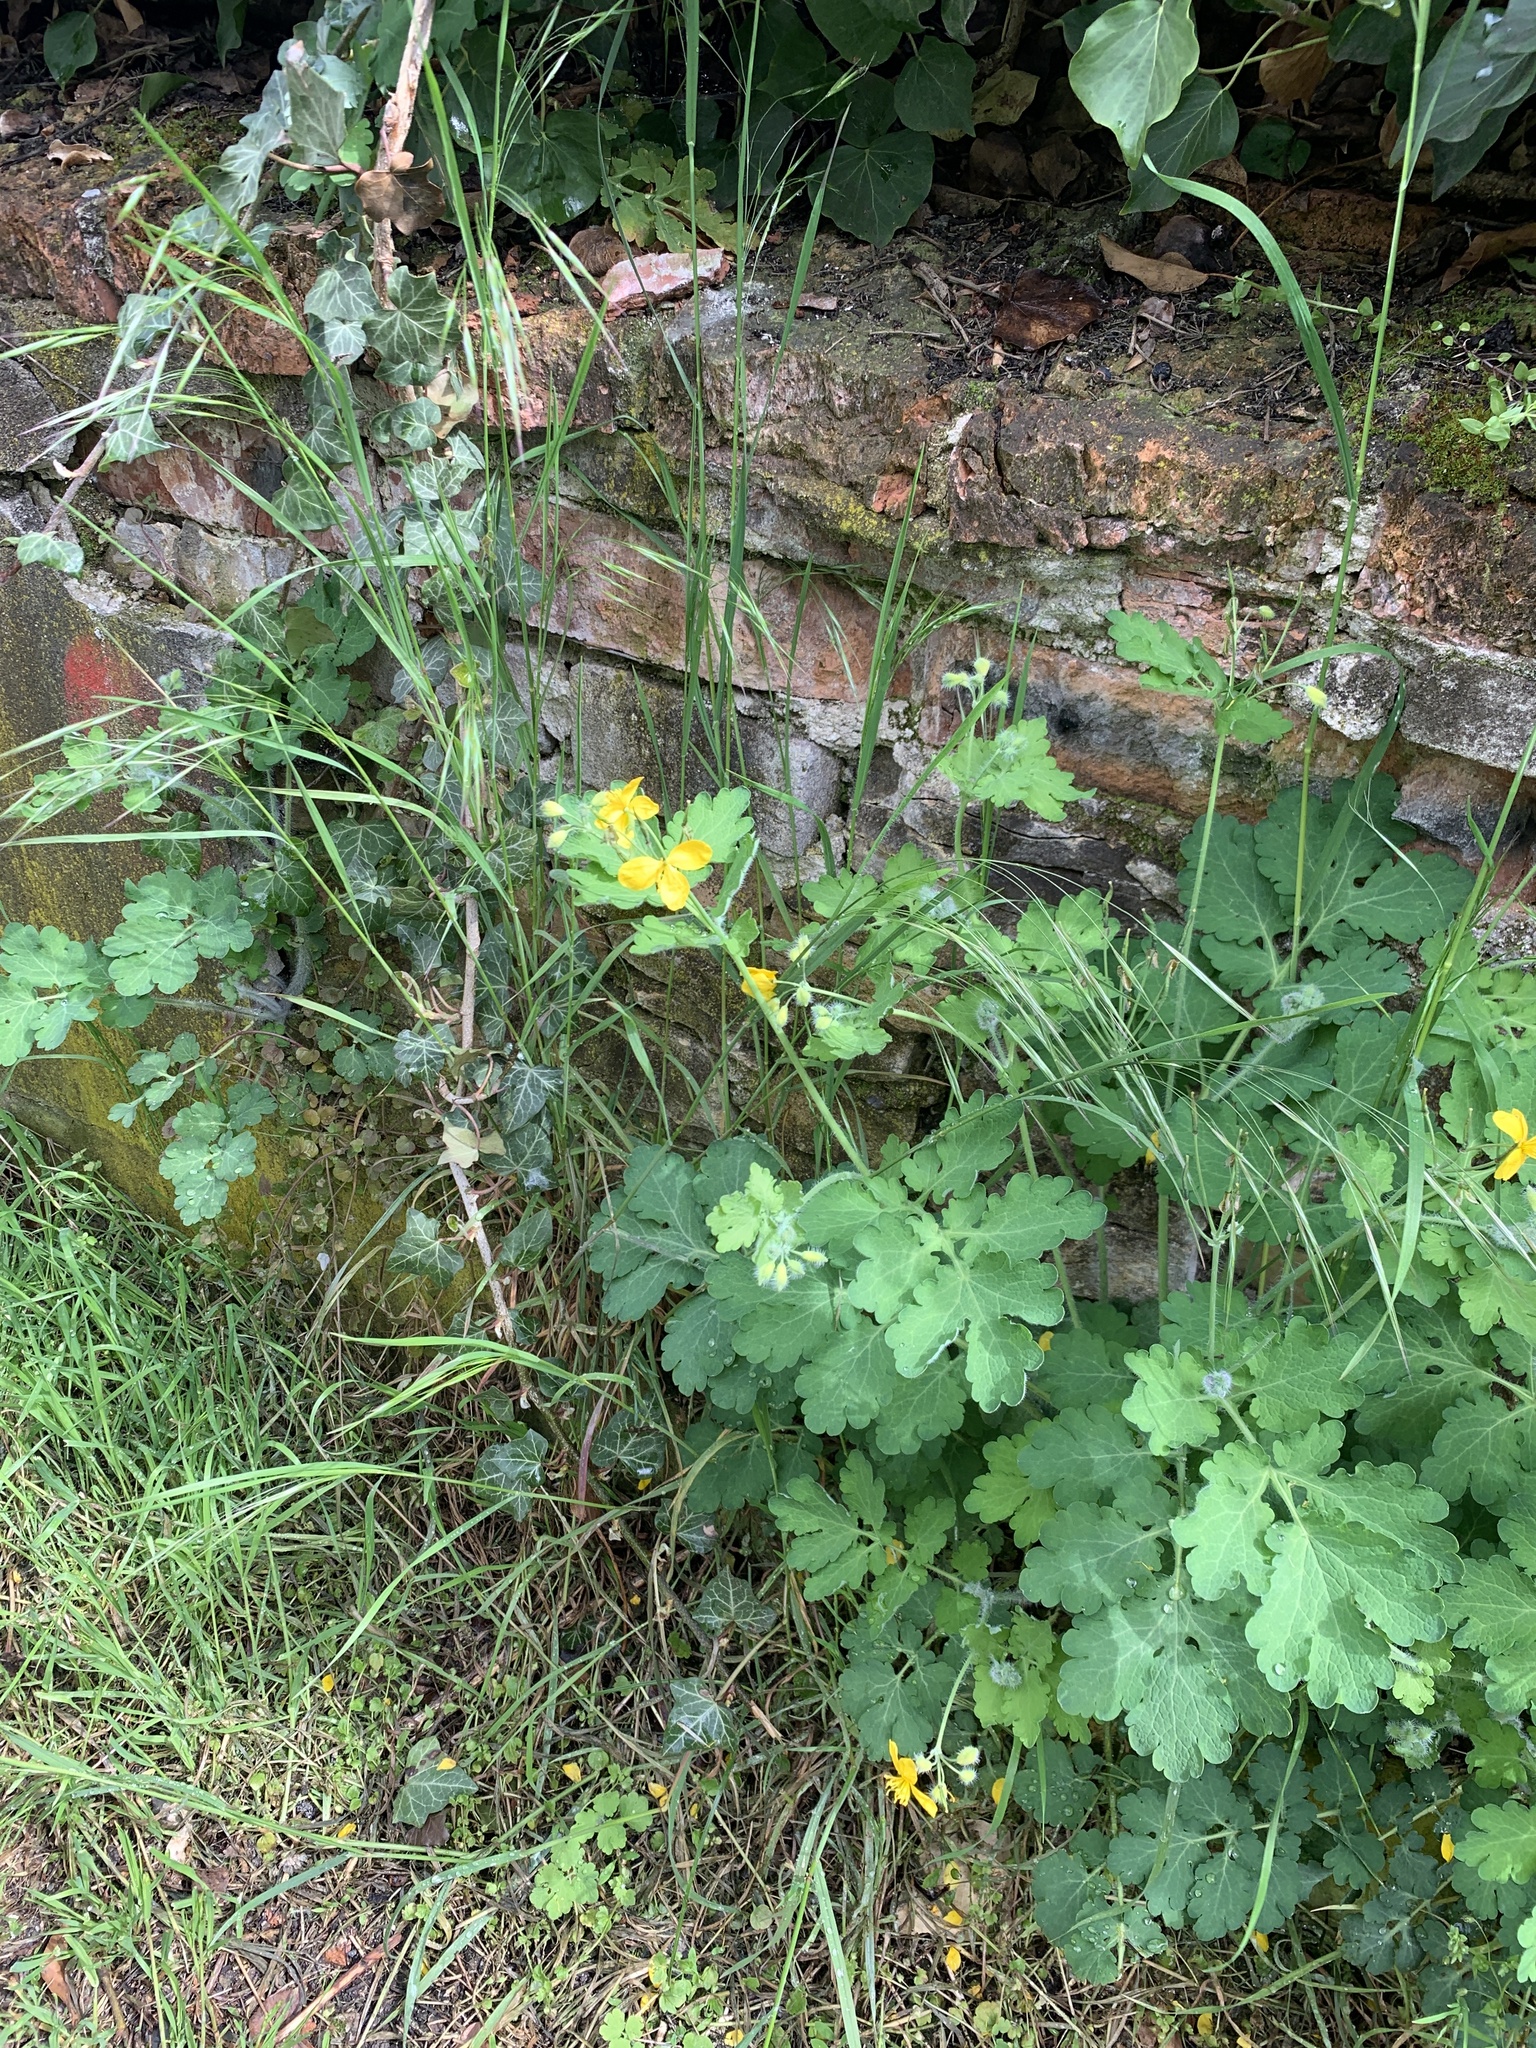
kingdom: Plantae
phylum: Tracheophyta
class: Magnoliopsida
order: Ranunculales
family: Papaveraceae
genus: Chelidonium
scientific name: Chelidonium majus
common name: Greater celandine
